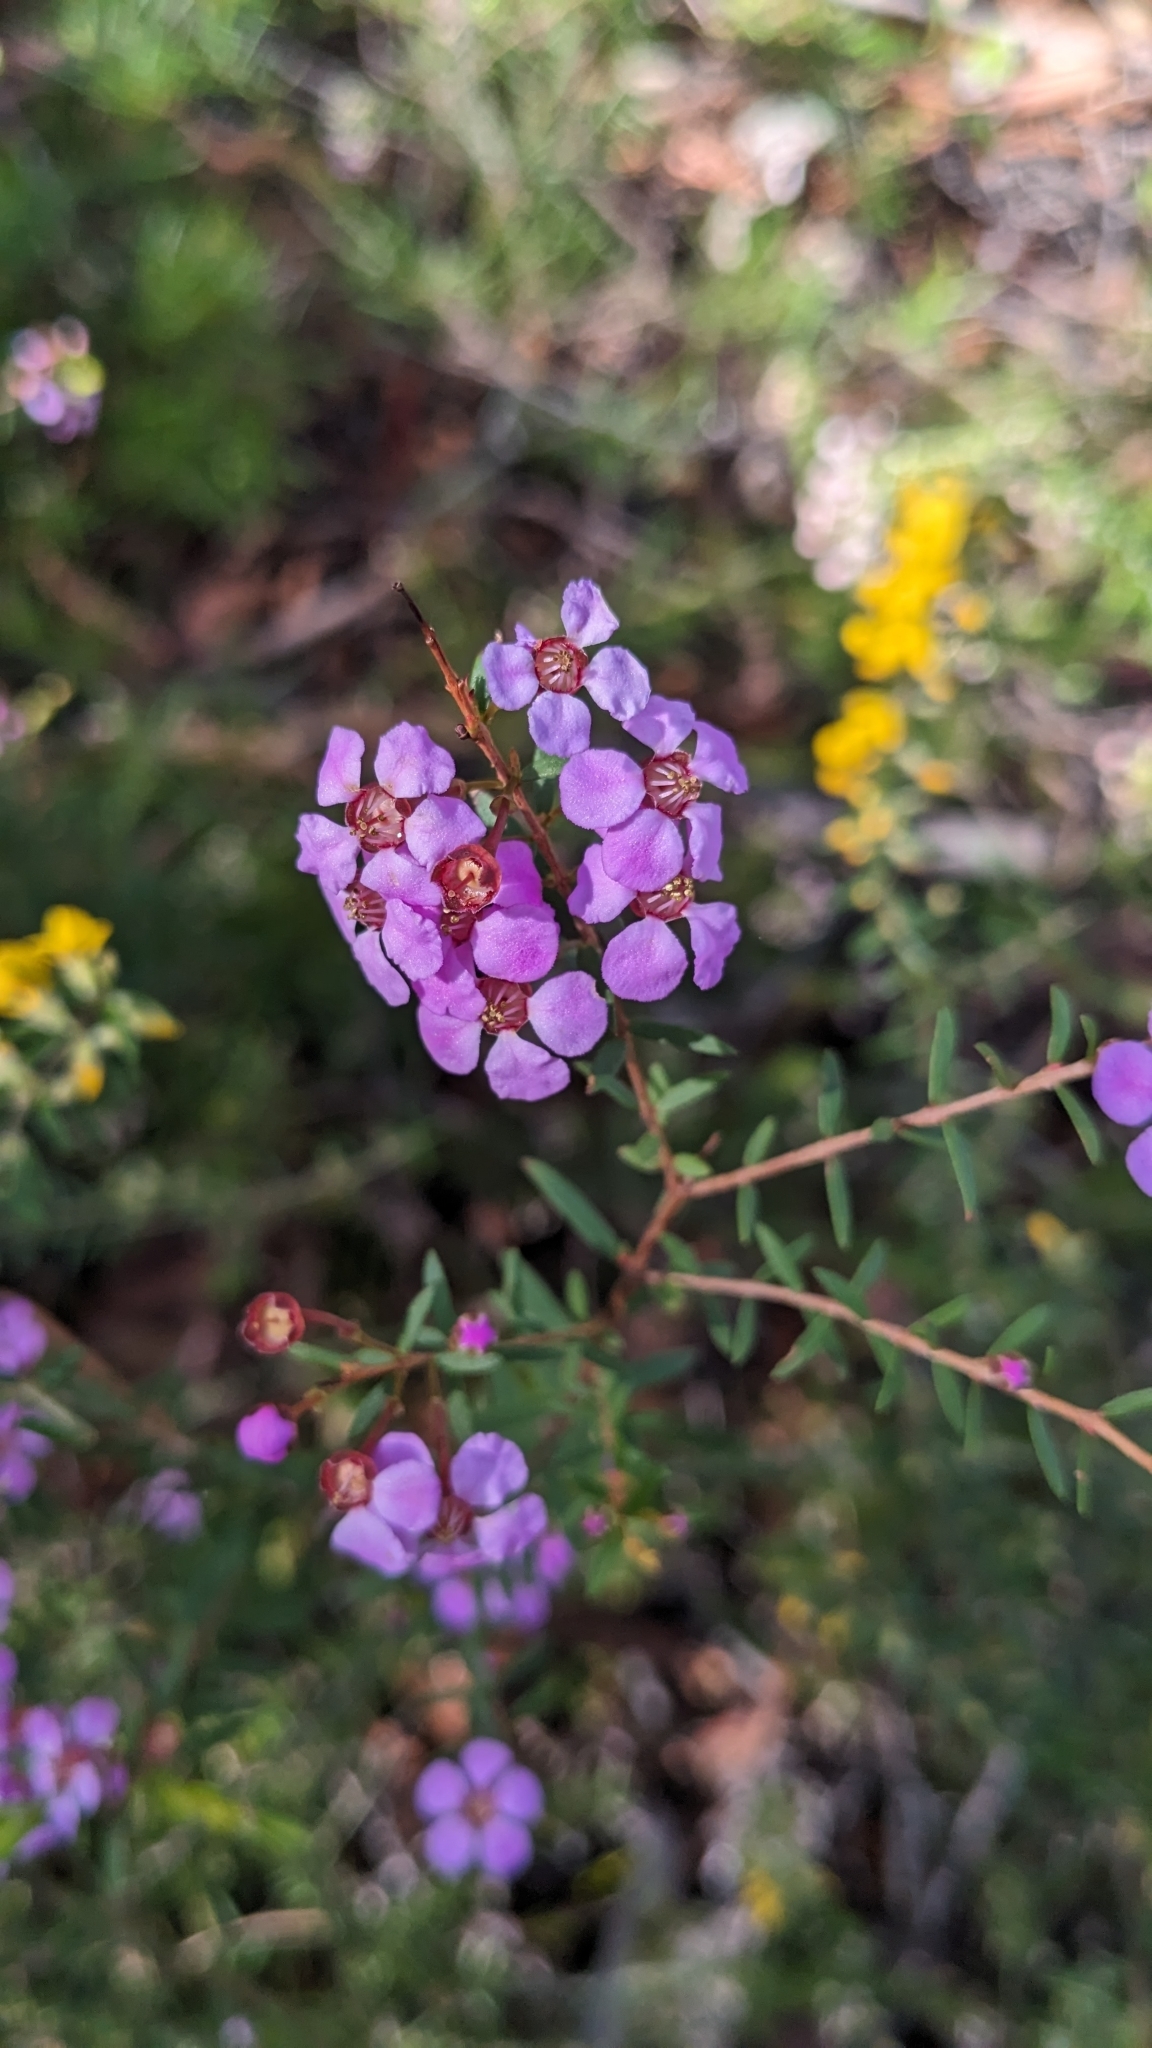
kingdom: Plantae
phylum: Tracheophyta
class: Magnoliopsida
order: Myrtales
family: Myrtaceae
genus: Euryomyrtus
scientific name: Euryomyrtus ramosissima
